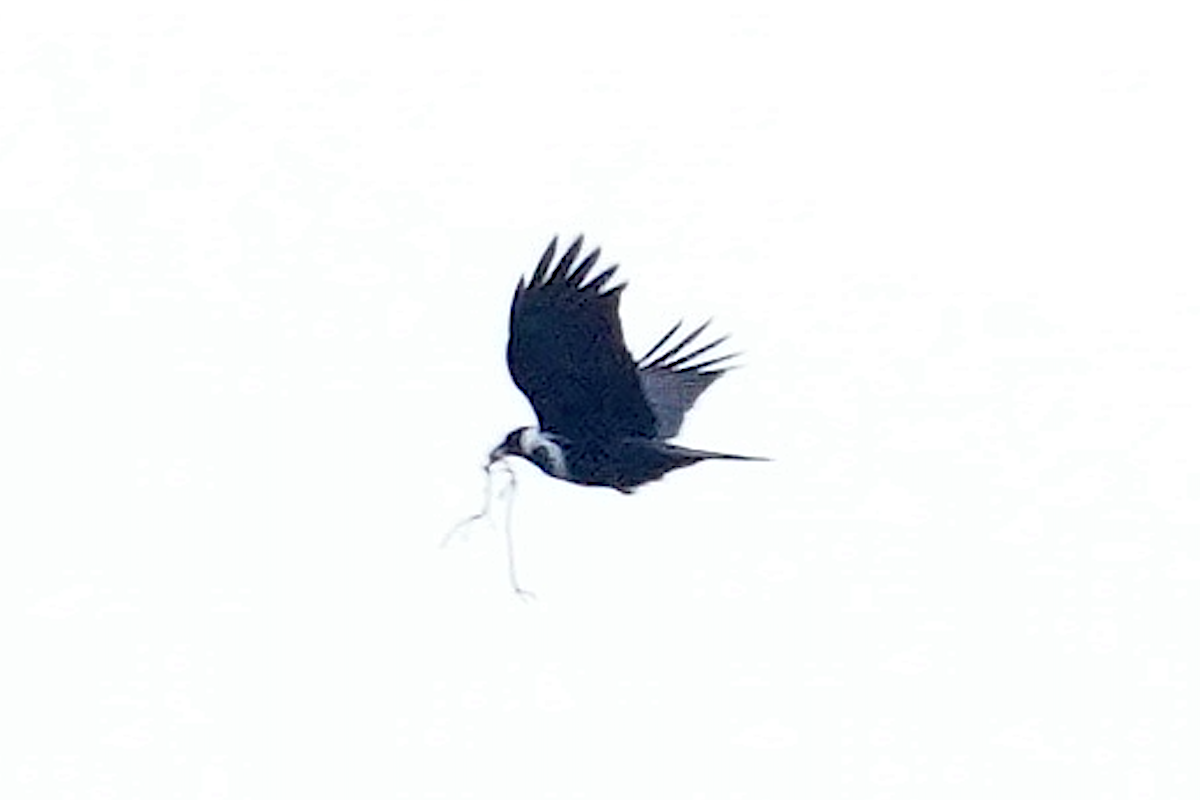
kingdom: Animalia
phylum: Chordata
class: Aves
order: Passeriformes
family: Corvidae
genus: Corvus
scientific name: Corvus pectoralis
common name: Collared crow
